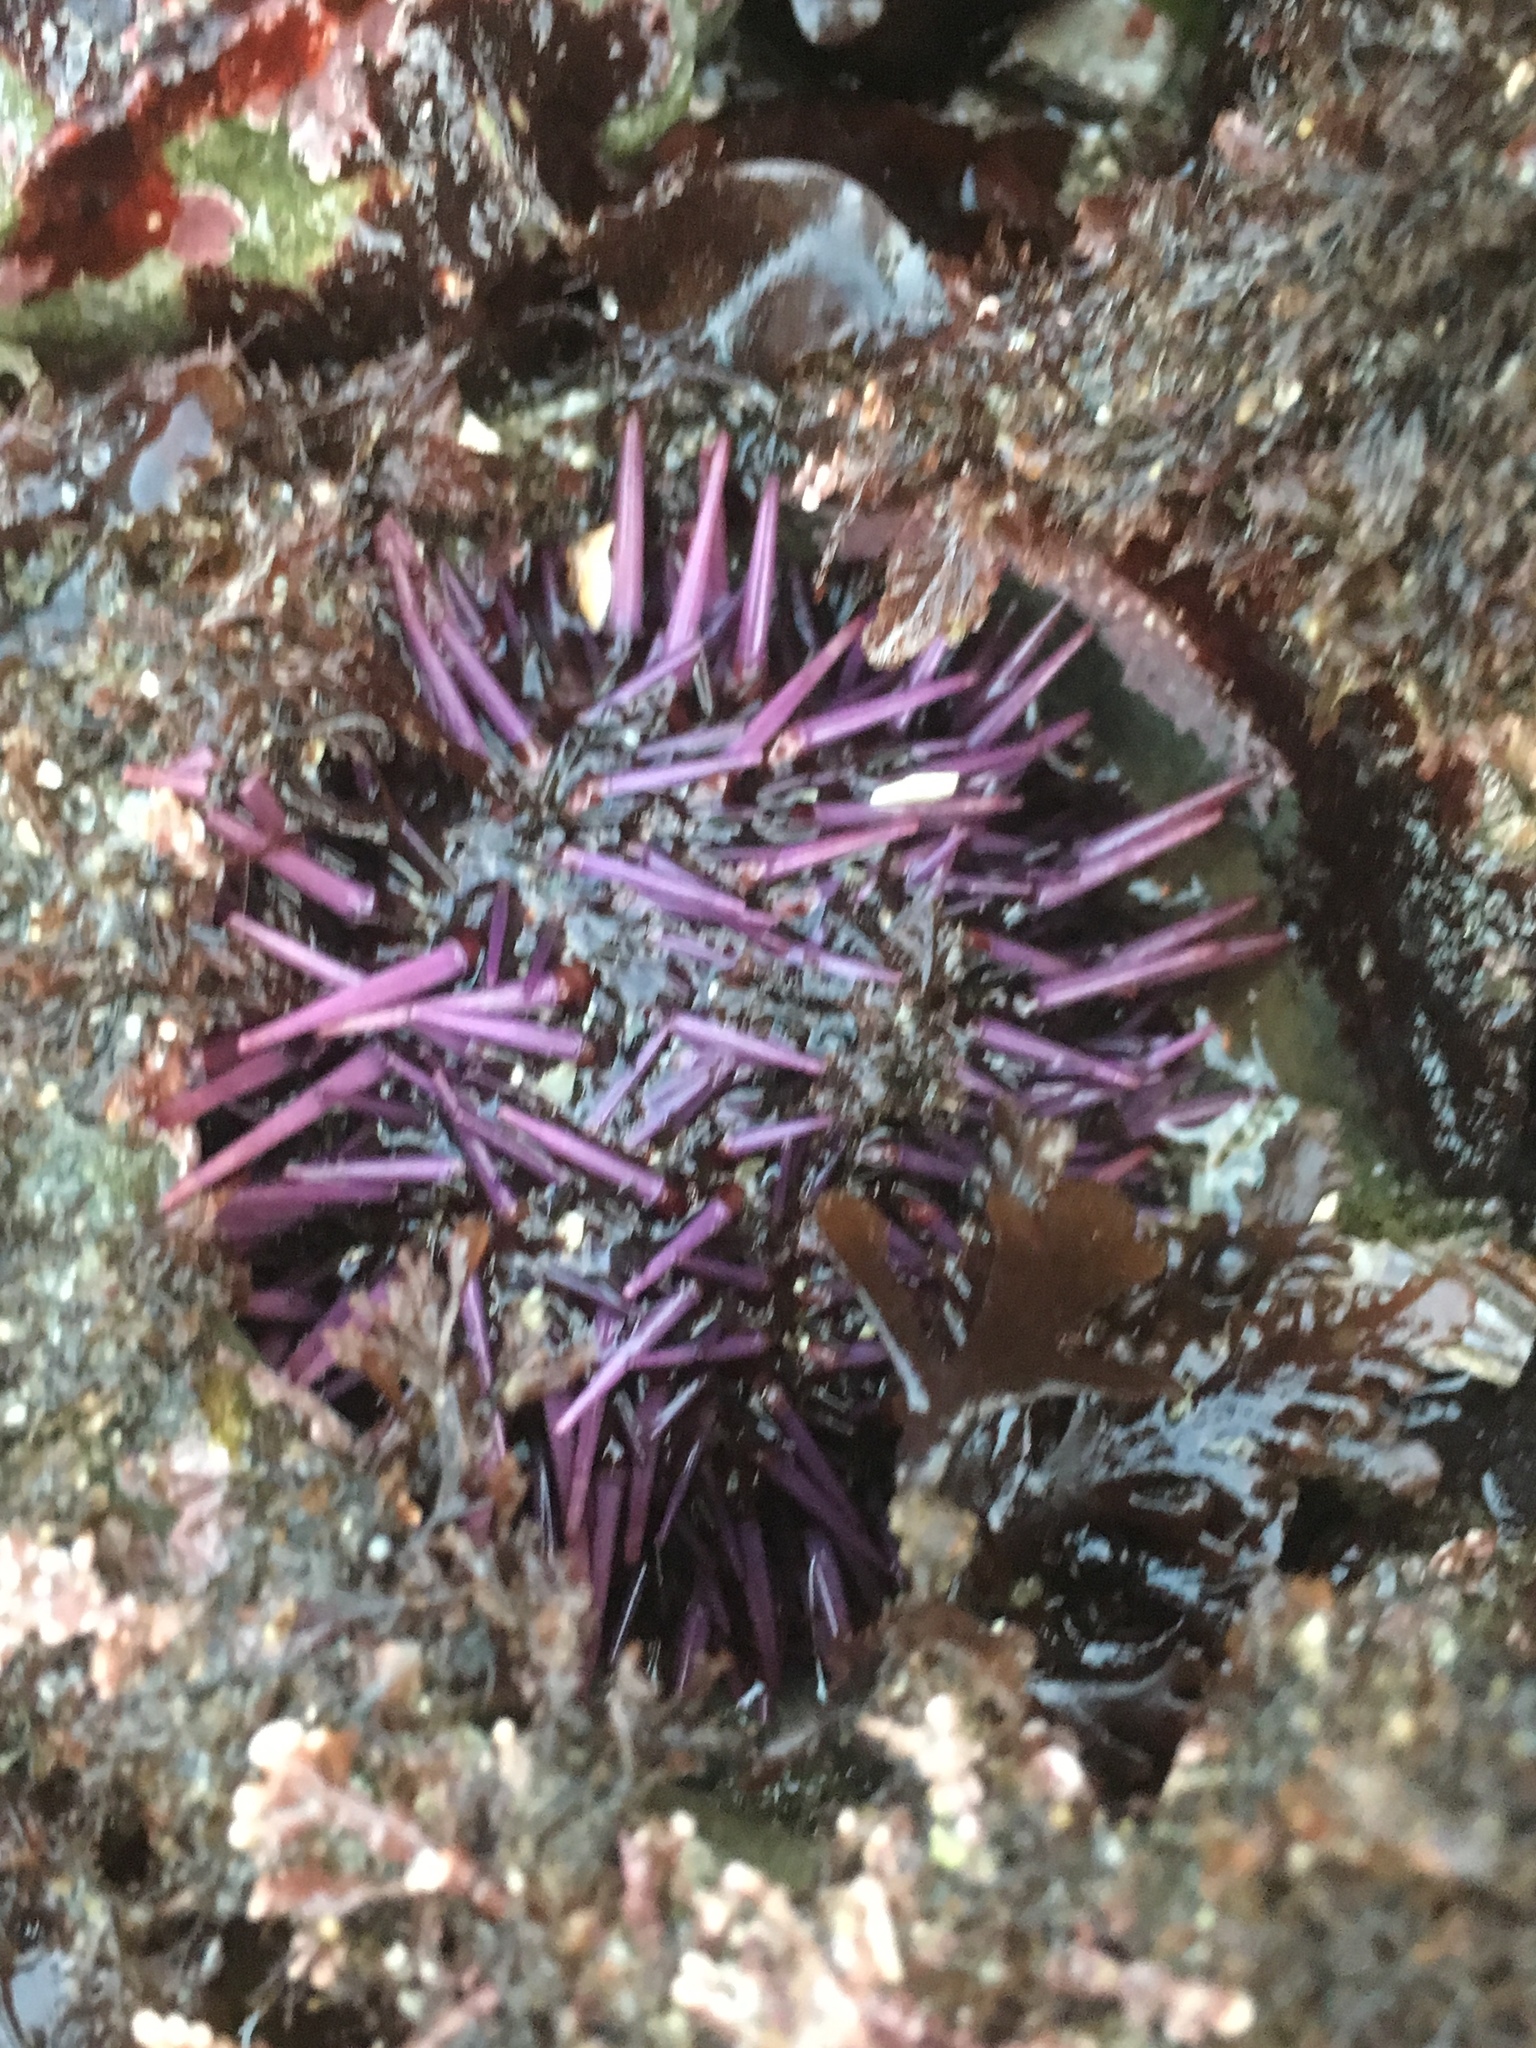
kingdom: Animalia
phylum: Echinodermata
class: Echinoidea
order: Camarodonta
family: Strongylocentrotidae
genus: Strongylocentrotus
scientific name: Strongylocentrotus purpuratus
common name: Purple sea urchin
